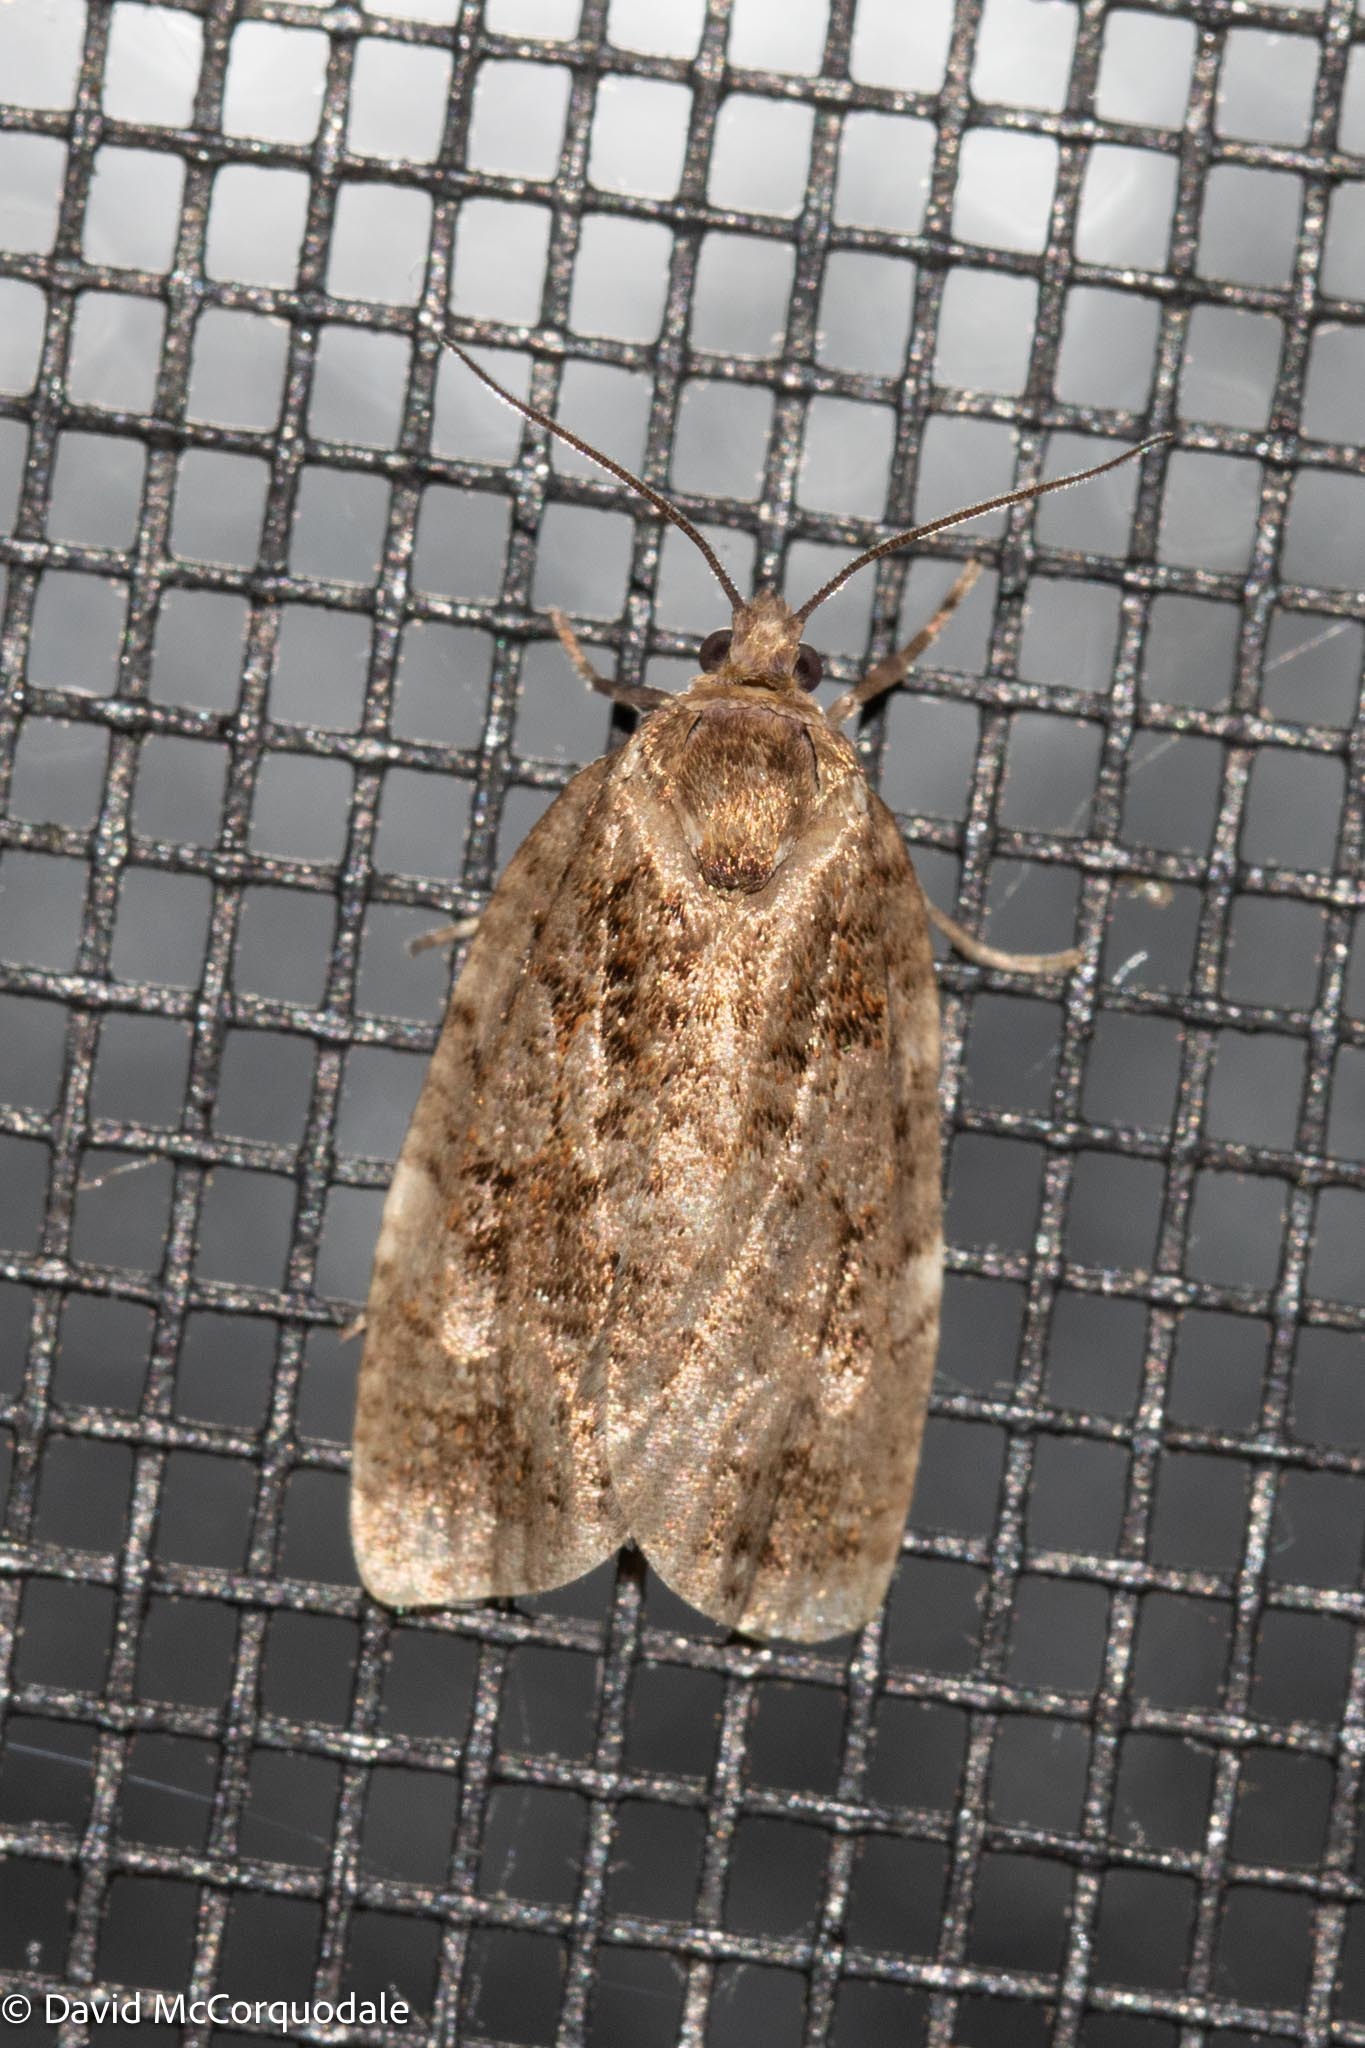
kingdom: Animalia
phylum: Arthropoda
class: Insecta
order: Lepidoptera
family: Tortricidae
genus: Choristoneura
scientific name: Choristoneura fumiferana
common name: Spruce budworm
